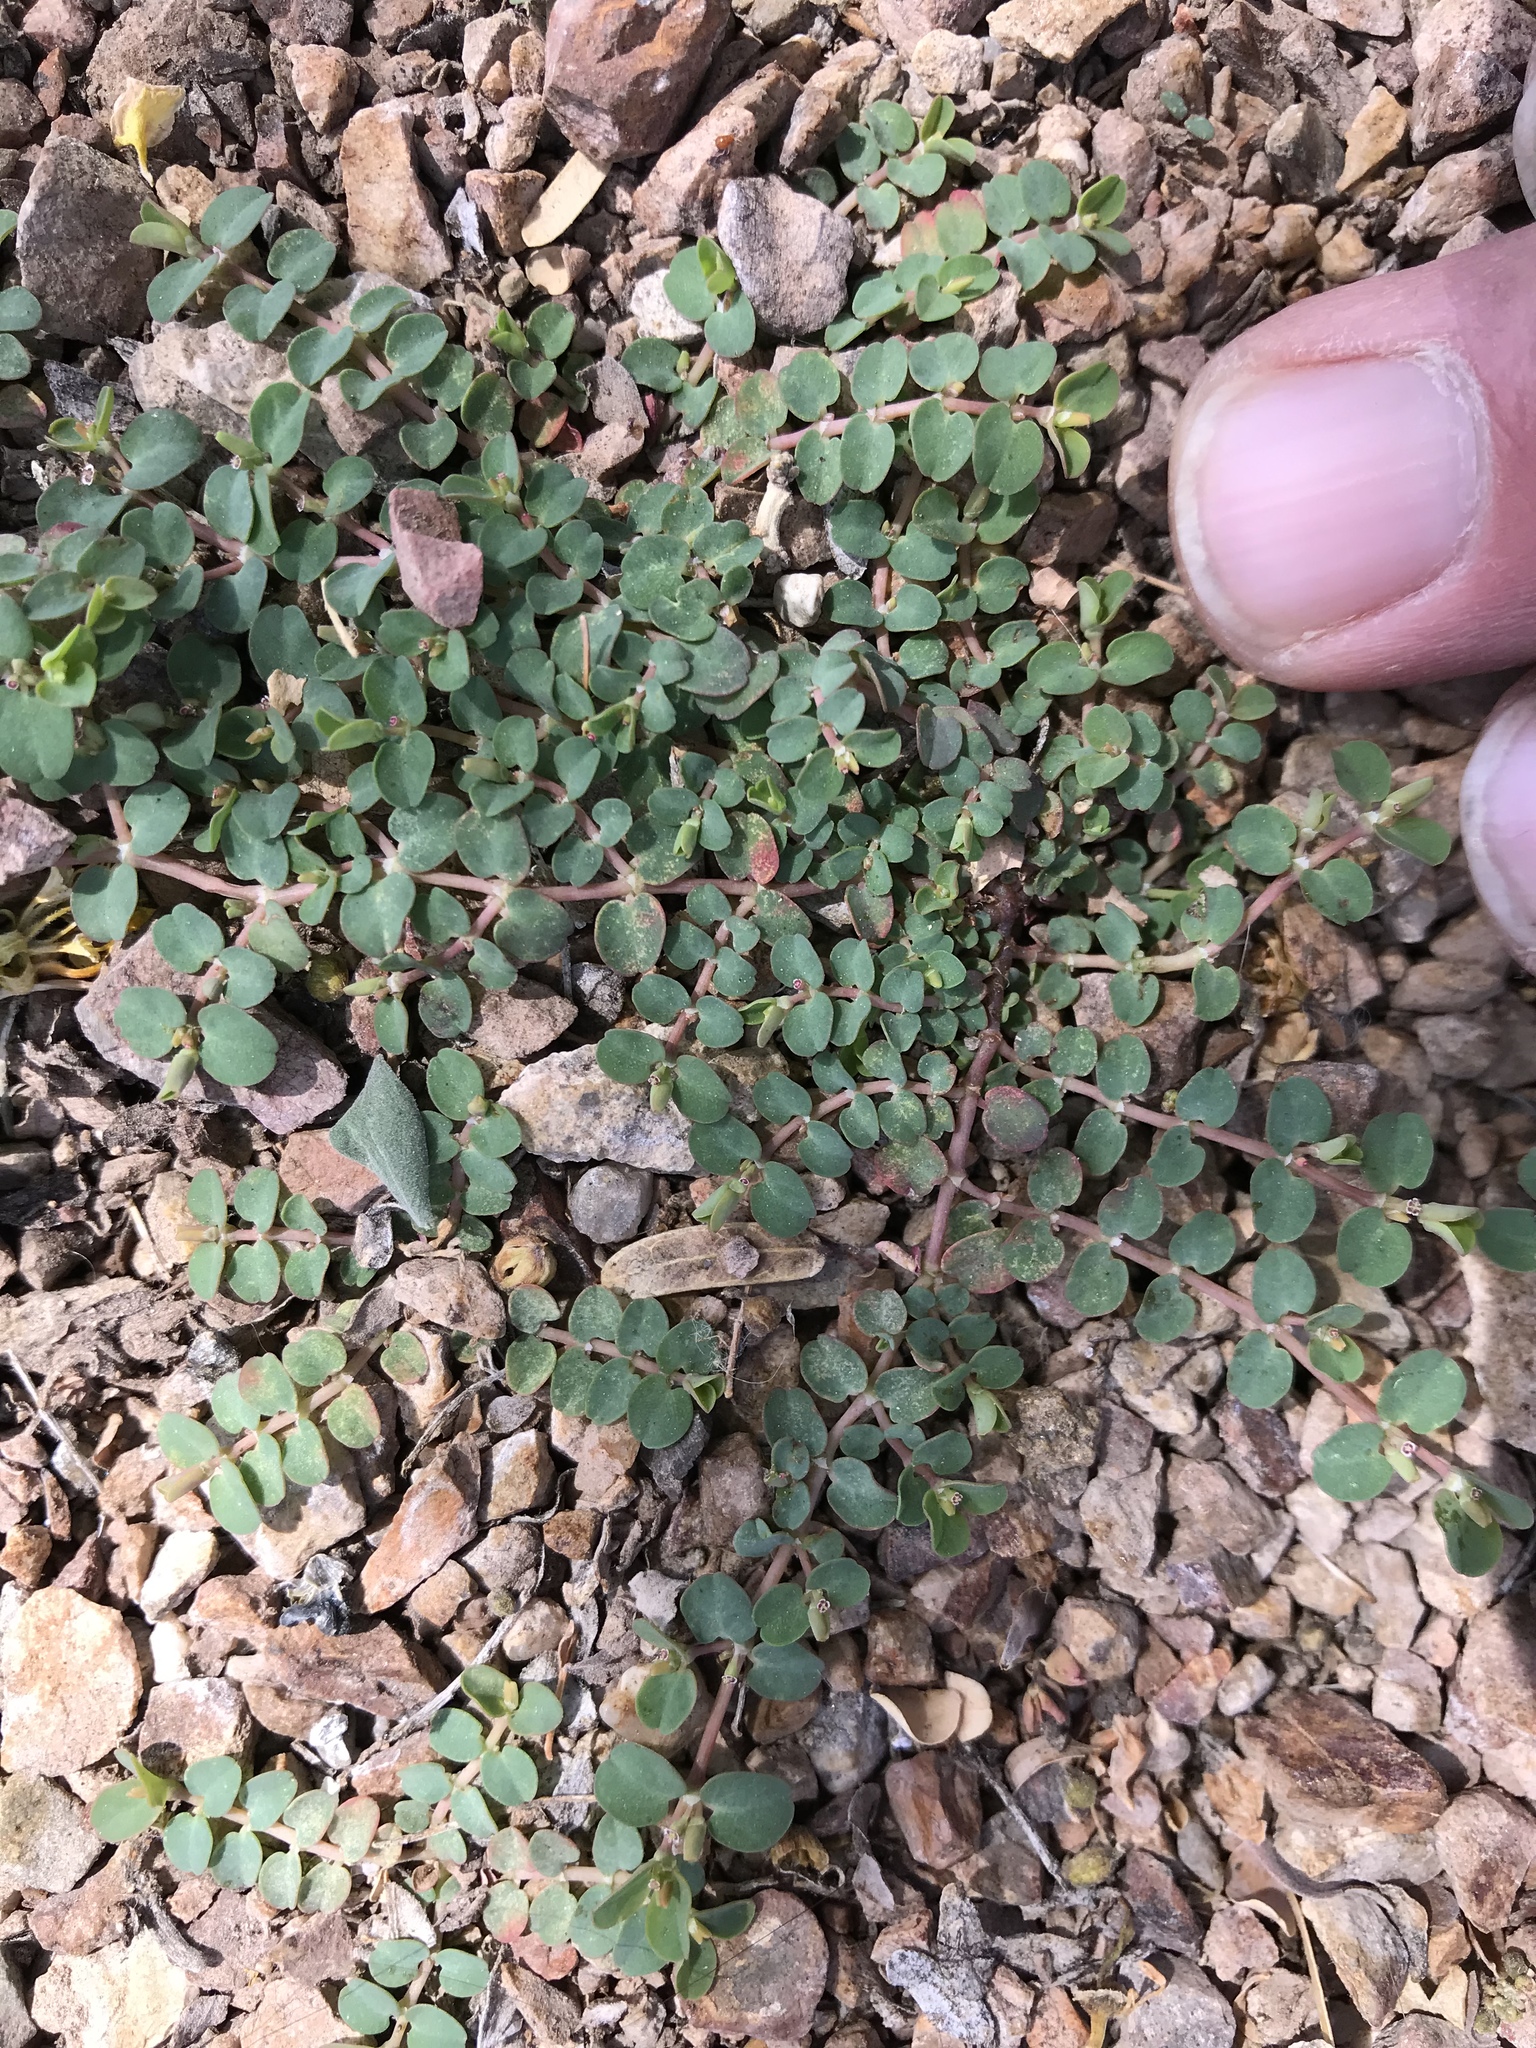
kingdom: Plantae
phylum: Tracheophyta
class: Magnoliopsida
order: Malpighiales
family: Euphorbiaceae
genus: Euphorbia
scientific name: Euphorbia serpens
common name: Matted sandmat
